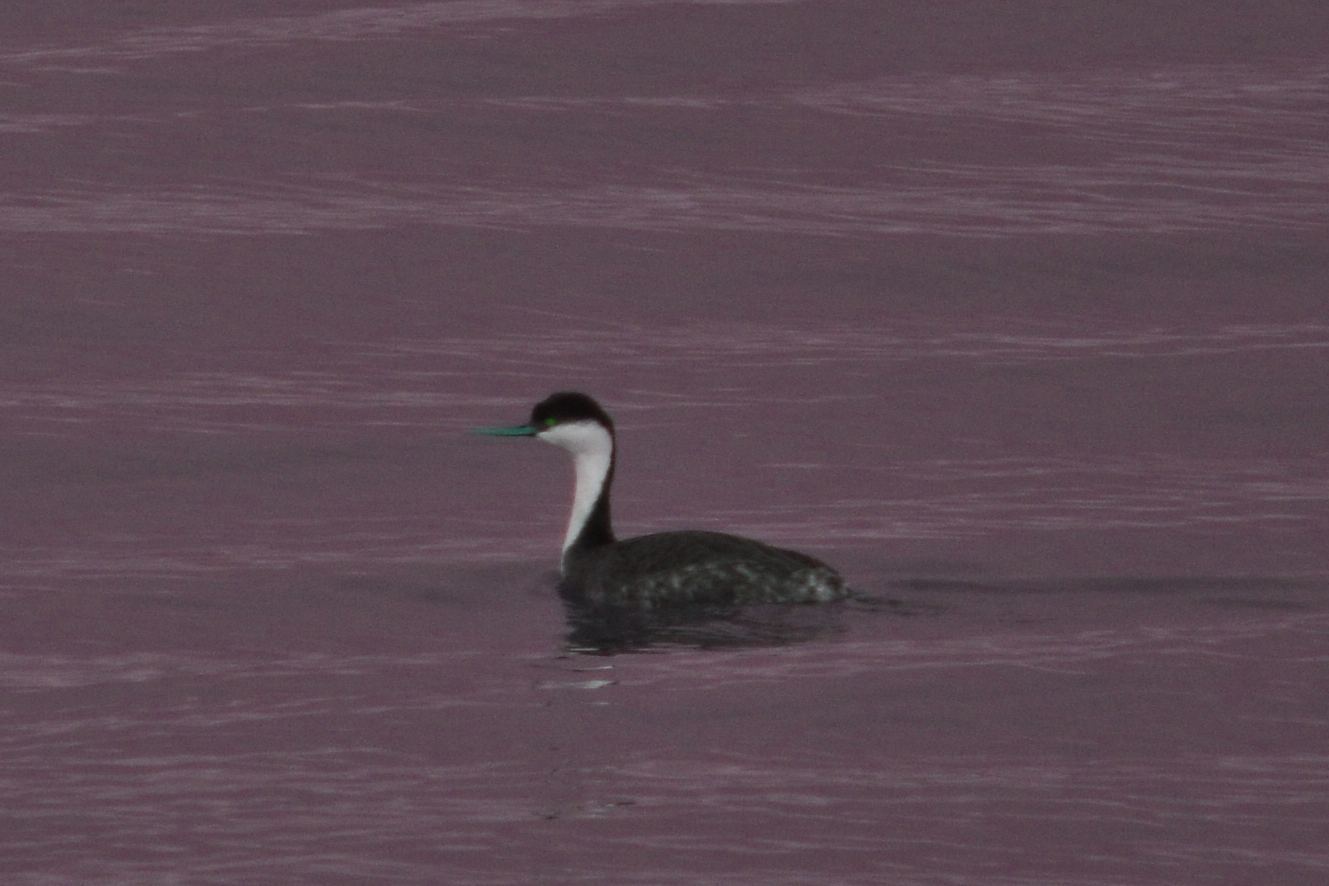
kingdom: Animalia
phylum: Chordata
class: Aves
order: Podicipediformes
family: Podicipedidae
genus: Aechmophorus
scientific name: Aechmophorus occidentalis
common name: Western grebe
